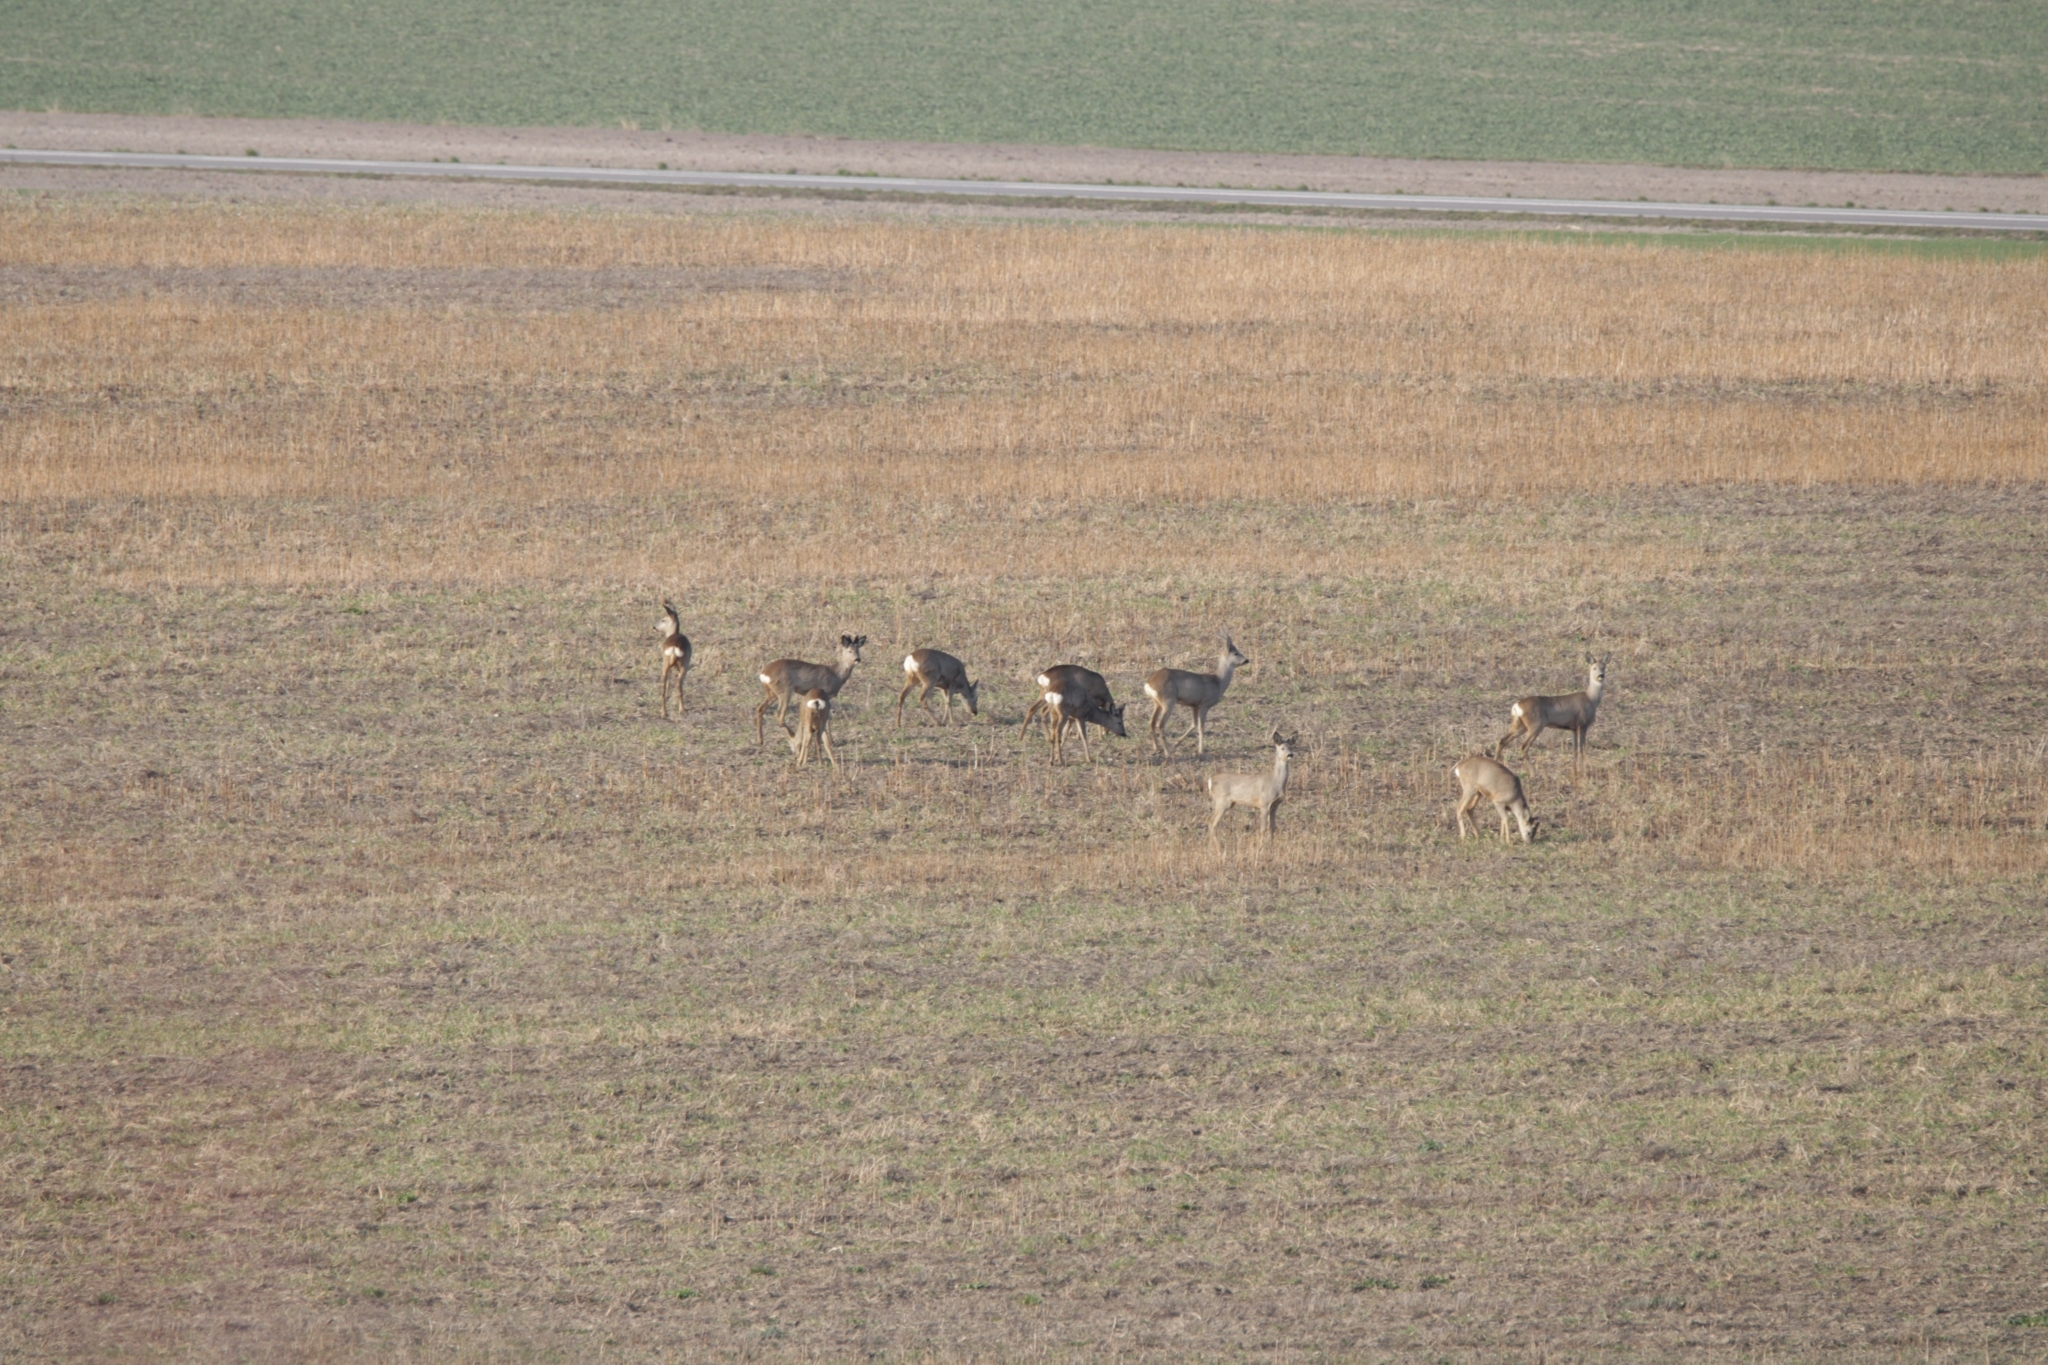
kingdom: Animalia
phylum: Chordata
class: Mammalia
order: Artiodactyla
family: Cervidae
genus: Capreolus
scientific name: Capreolus capreolus
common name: Western roe deer
